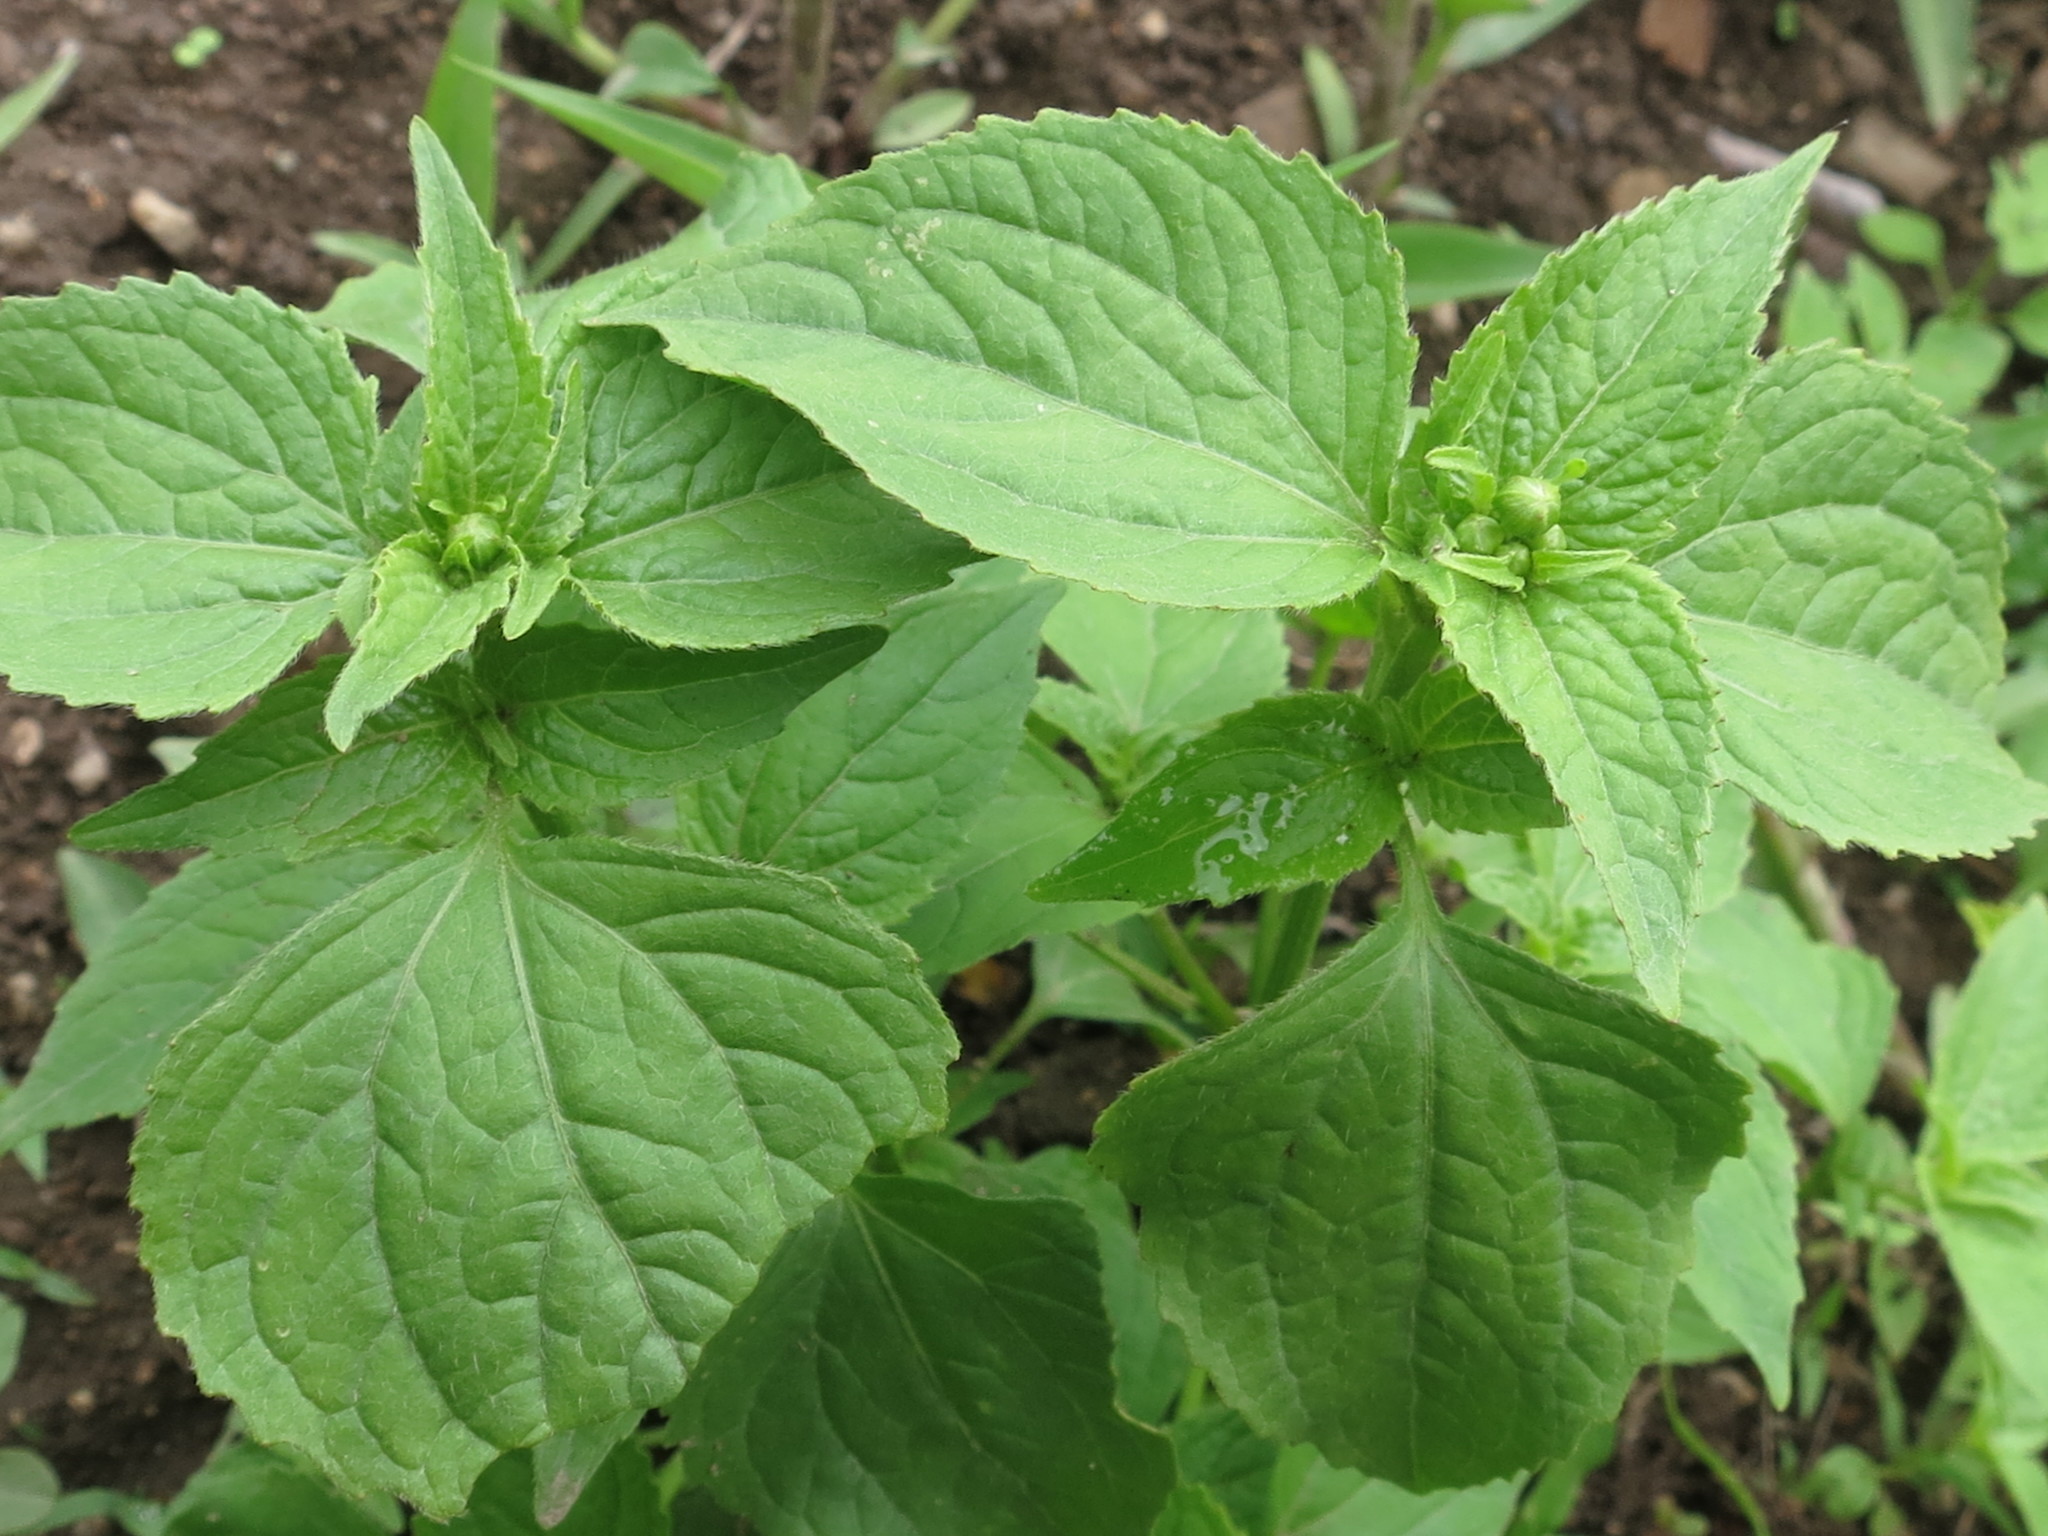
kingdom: Plantae
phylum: Tracheophyta
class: Magnoliopsida
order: Asterales
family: Asteraceae
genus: Galinsoga
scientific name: Galinsoga quadriradiata
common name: Shaggy soldier
